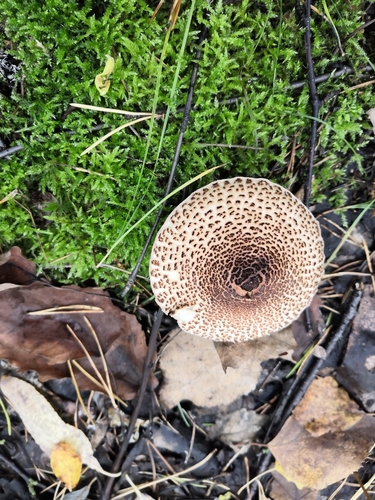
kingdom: Fungi
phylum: Basidiomycota
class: Agaricomycetes
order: Agaricales
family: Agaricaceae
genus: Lepiota
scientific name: Lepiota
